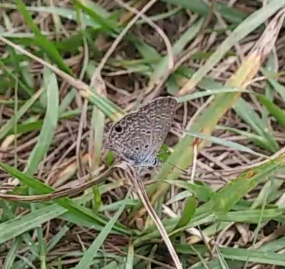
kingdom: Animalia
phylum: Arthropoda
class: Insecta
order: Lepidoptera
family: Lycaenidae
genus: Hemiargus
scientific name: Hemiargus ceraunus
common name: Ceraunus blue
